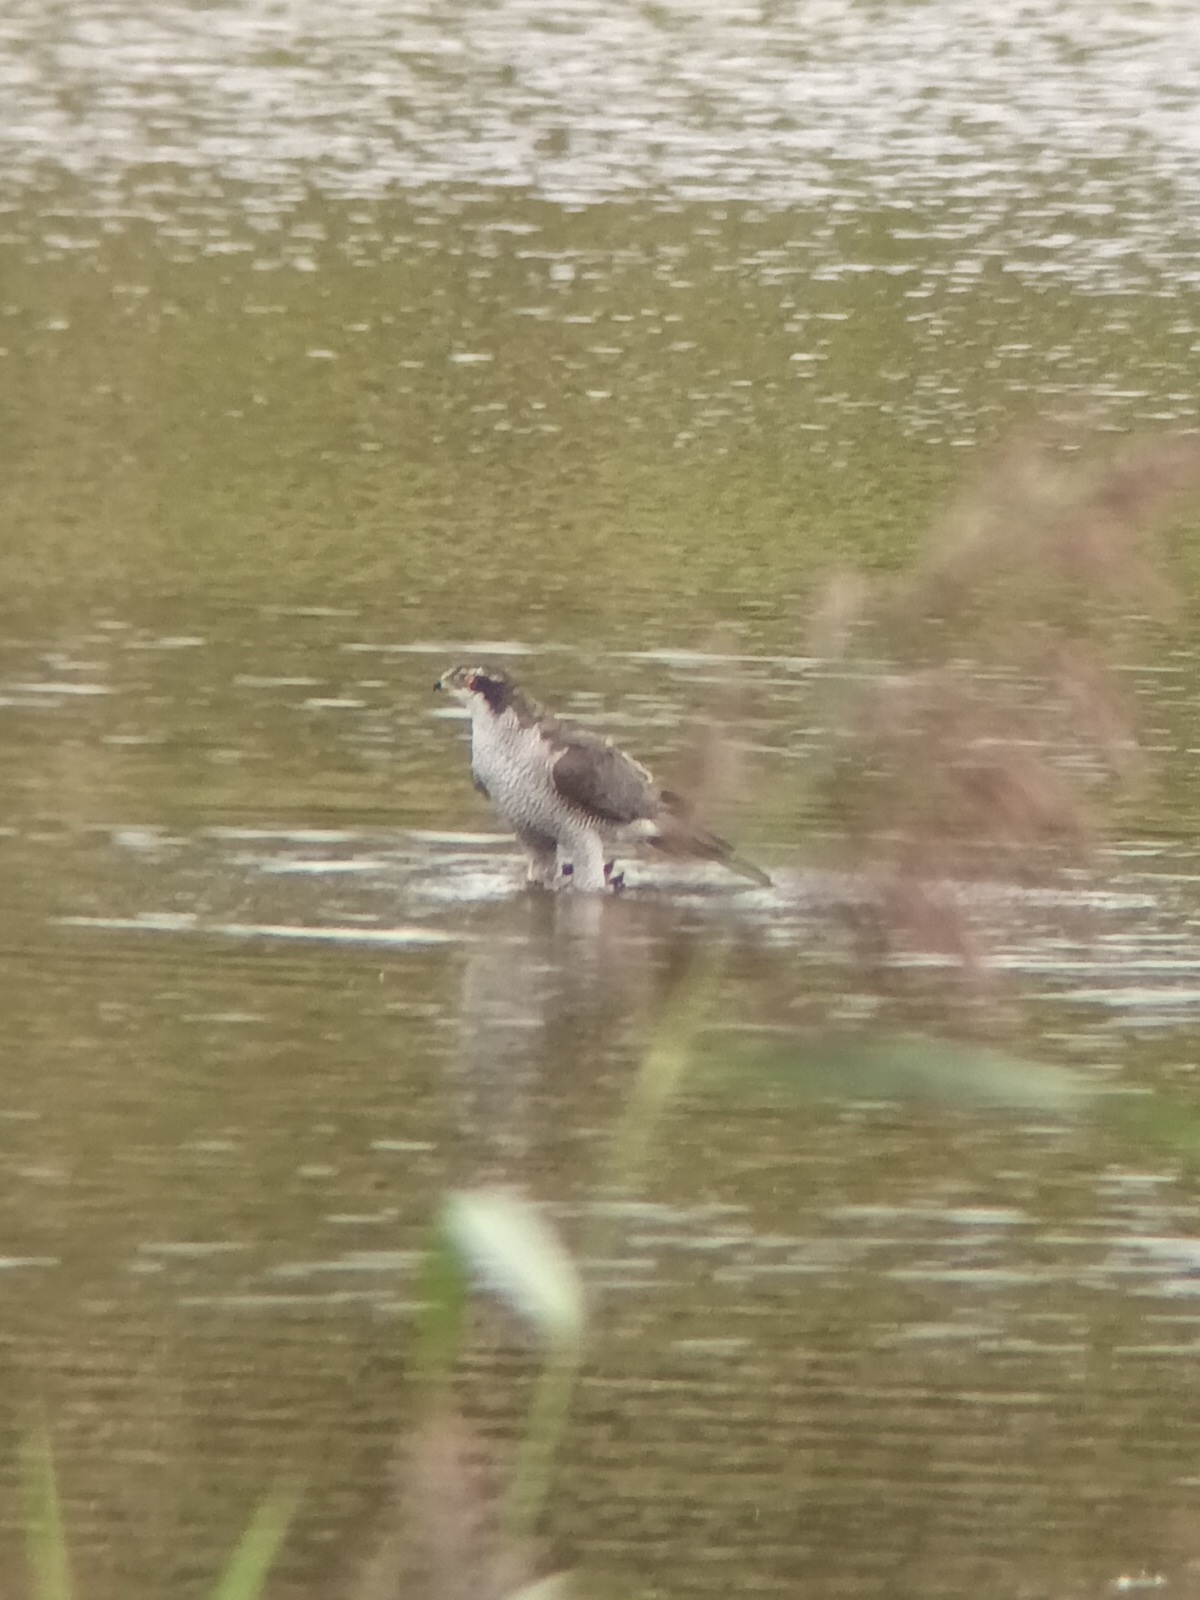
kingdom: Animalia
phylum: Chordata
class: Aves
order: Accipitriformes
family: Accipitridae
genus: Accipiter
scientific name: Accipiter gentilis
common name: Northern goshawk
